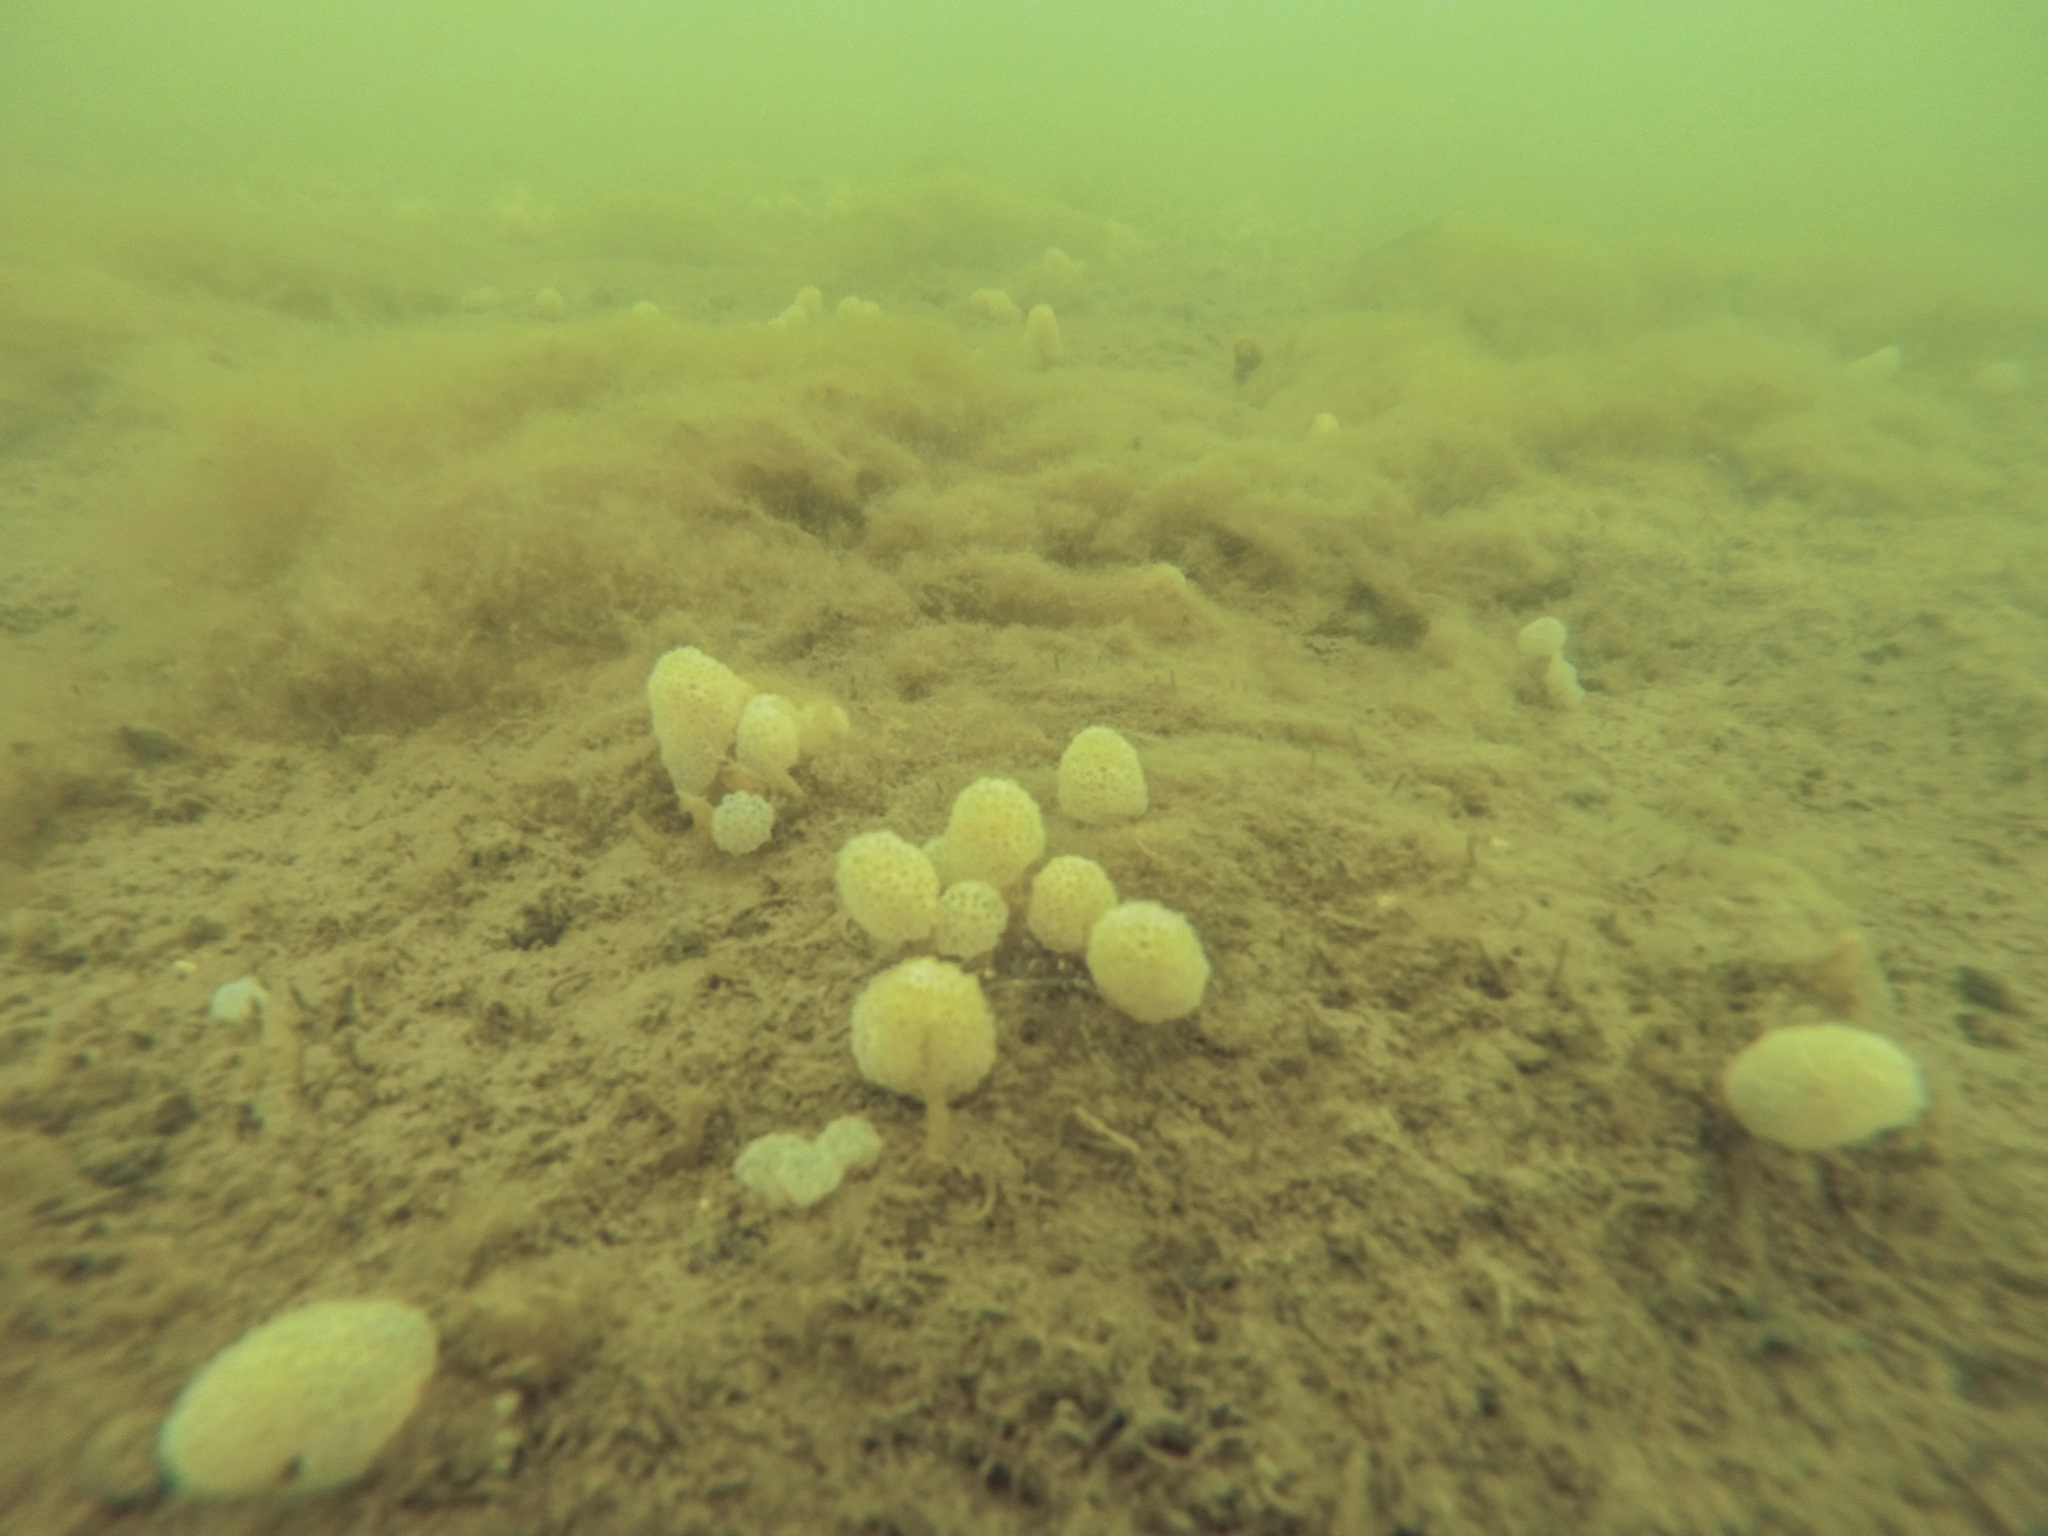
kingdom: Animalia
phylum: Chordata
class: Ascidiacea
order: Aplousobranchia
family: Polycitoridae
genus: Eudistoma
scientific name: Eudistoma elongatum
